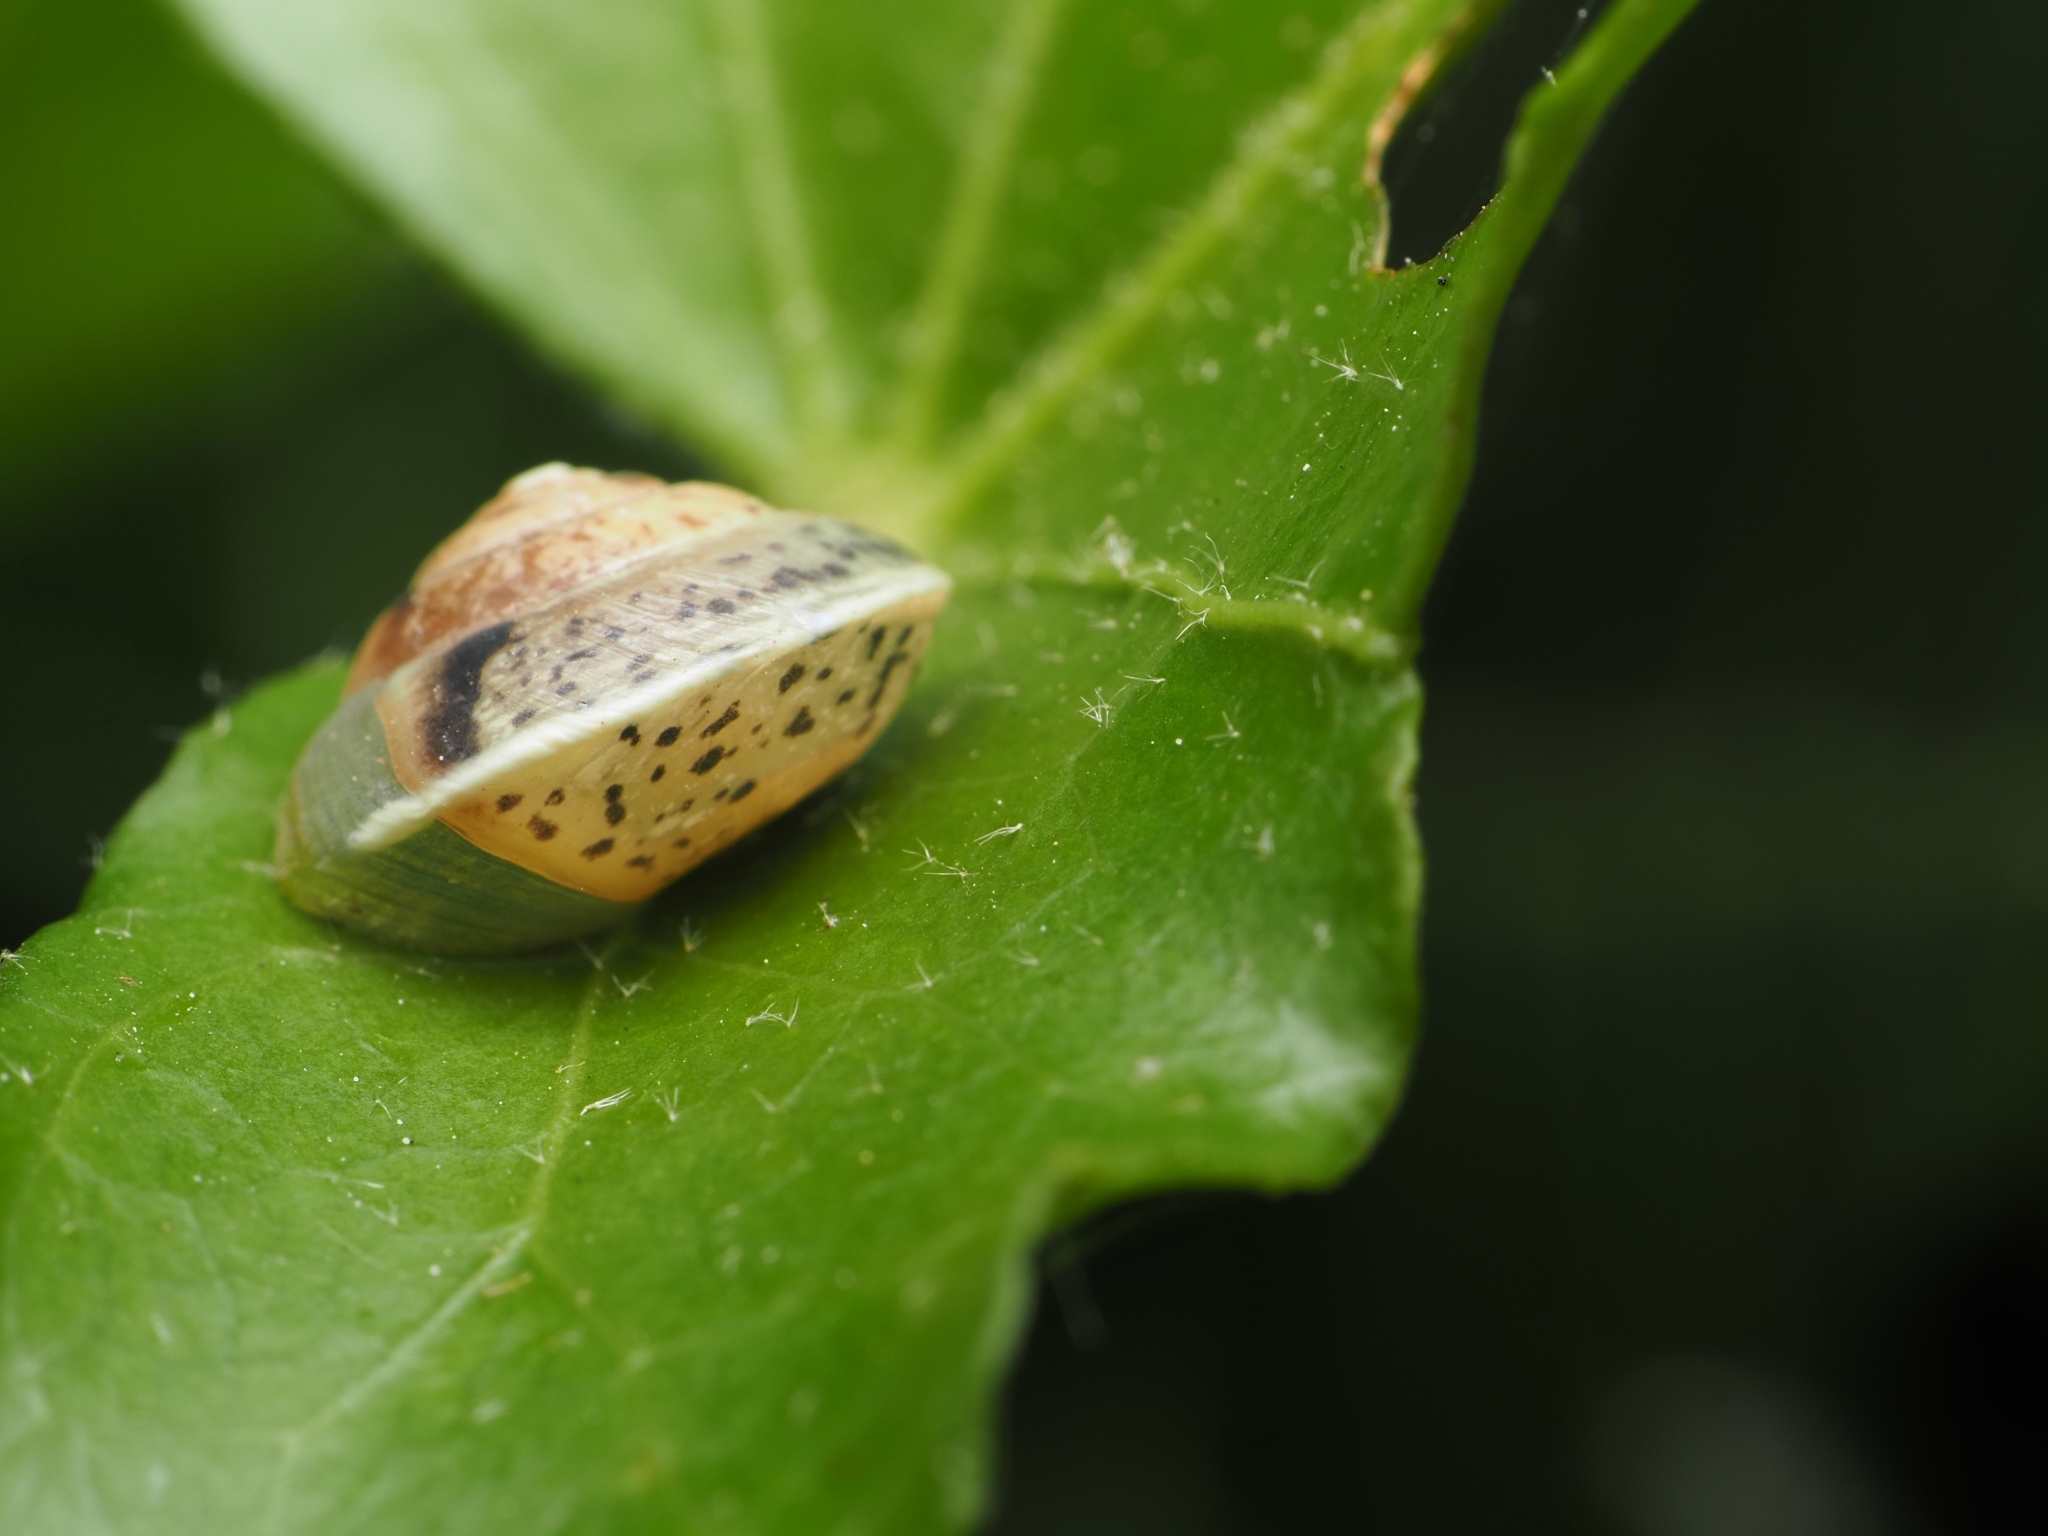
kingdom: Animalia
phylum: Mollusca
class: Gastropoda
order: Stylommatophora
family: Hygromiidae
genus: Hygromia
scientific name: Hygromia cinctella
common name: Girdled snail
